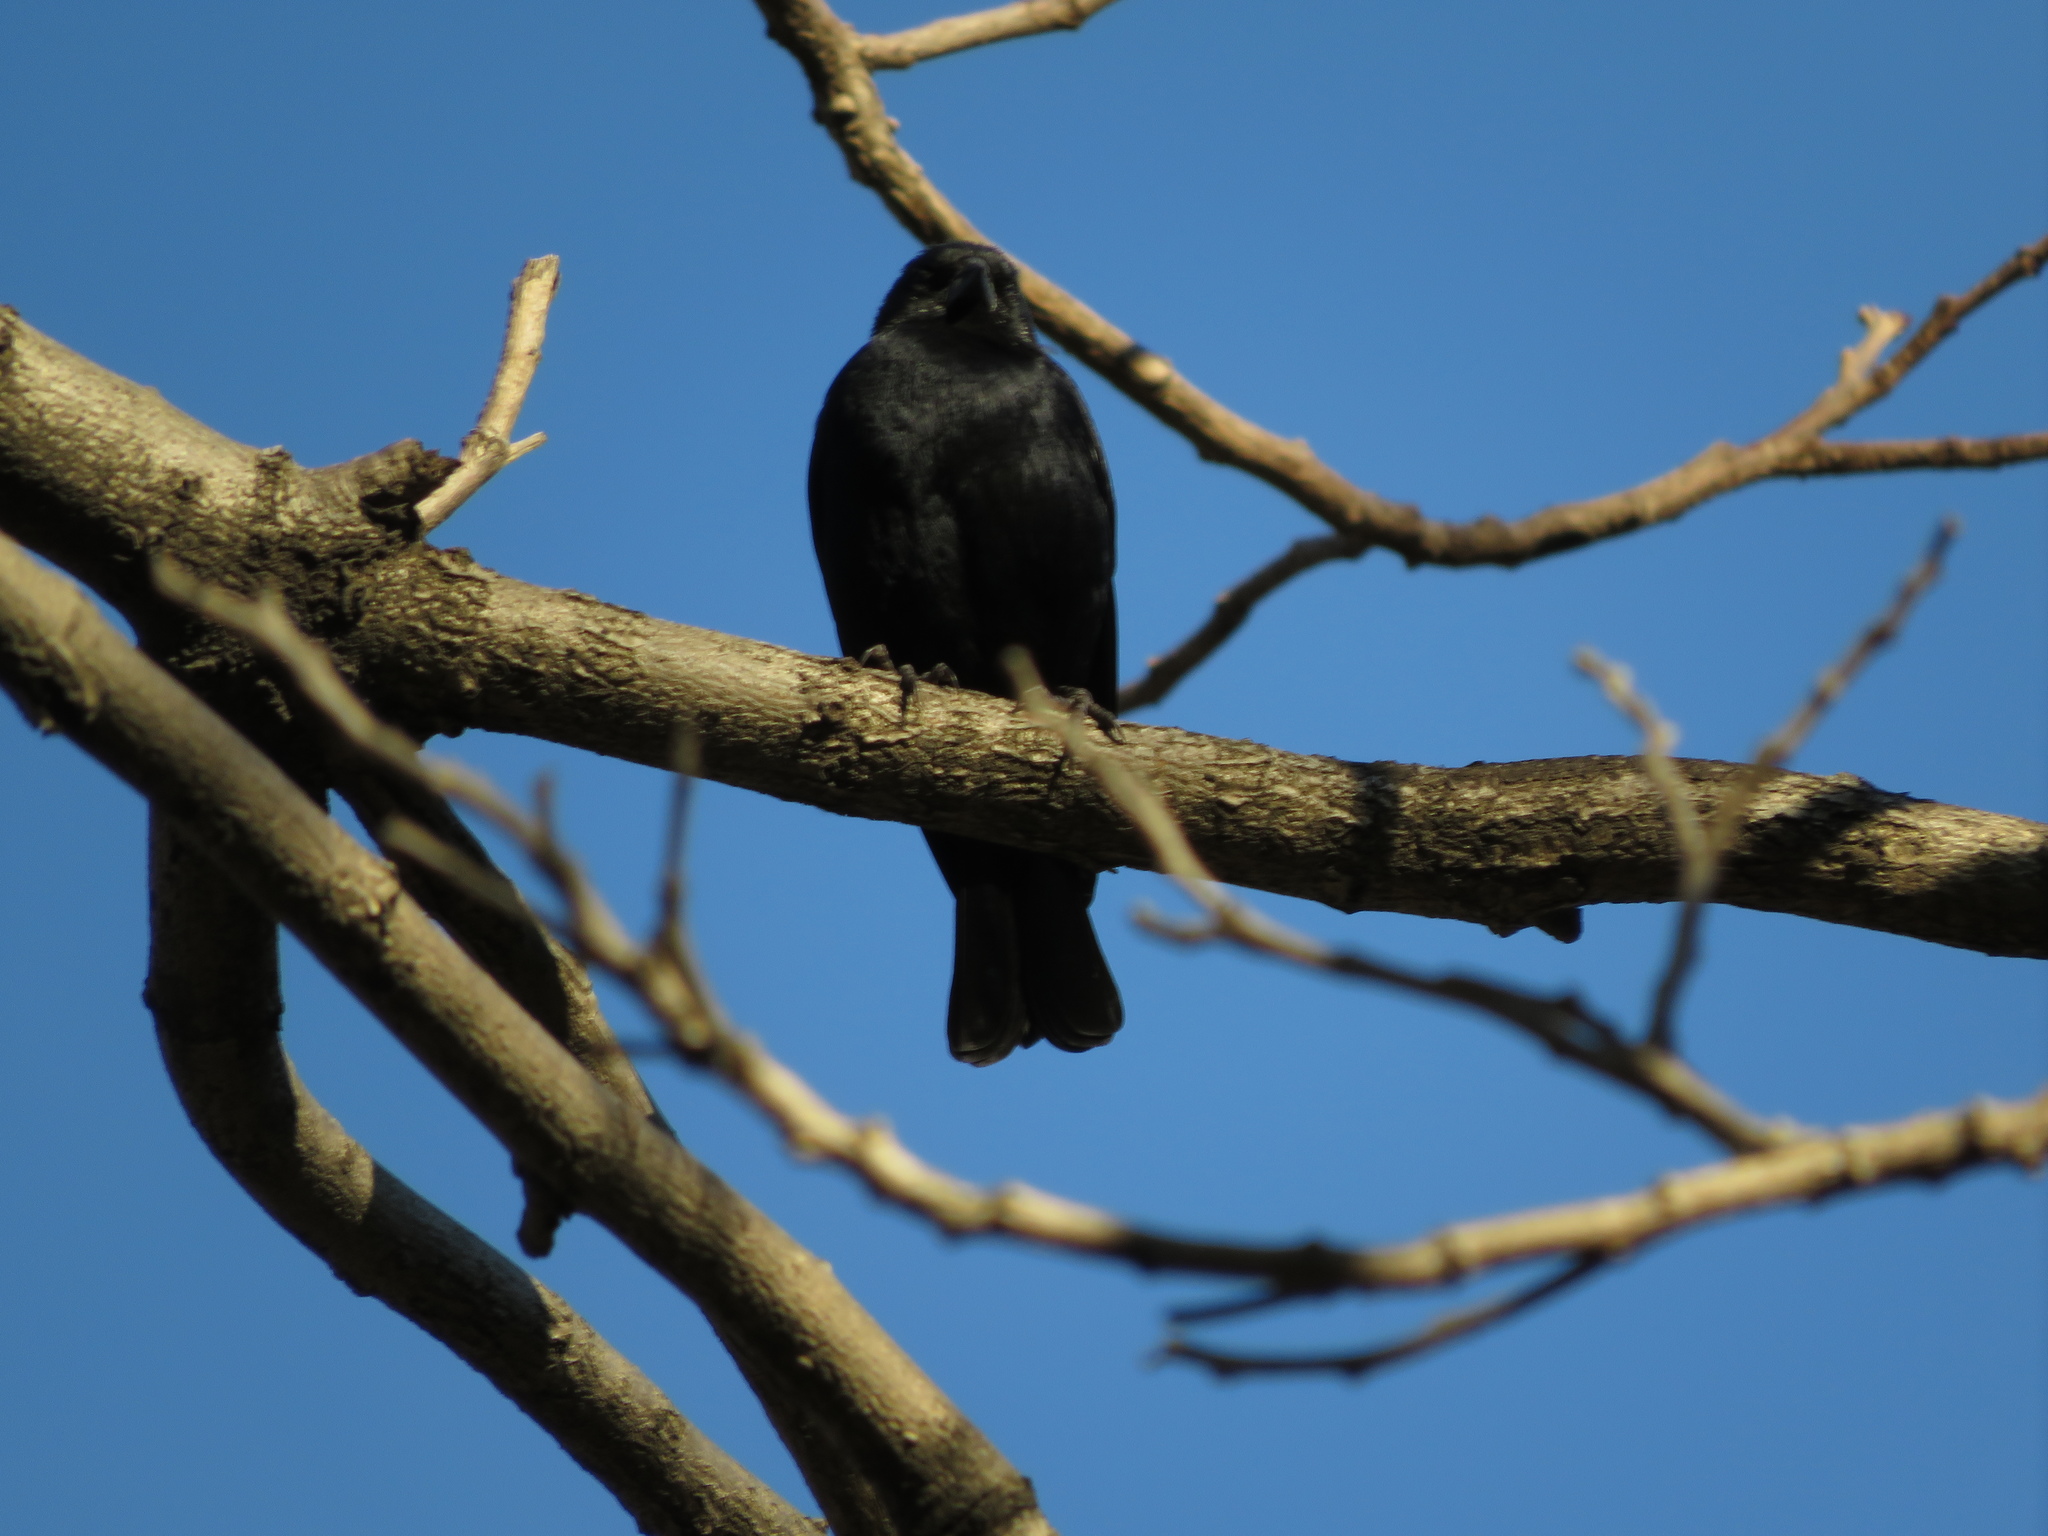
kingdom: Animalia
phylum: Chordata
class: Aves
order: Passeriformes
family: Icteridae
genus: Molothrus
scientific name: Molothrus rufoaxillaris
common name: Screaming cowbird
